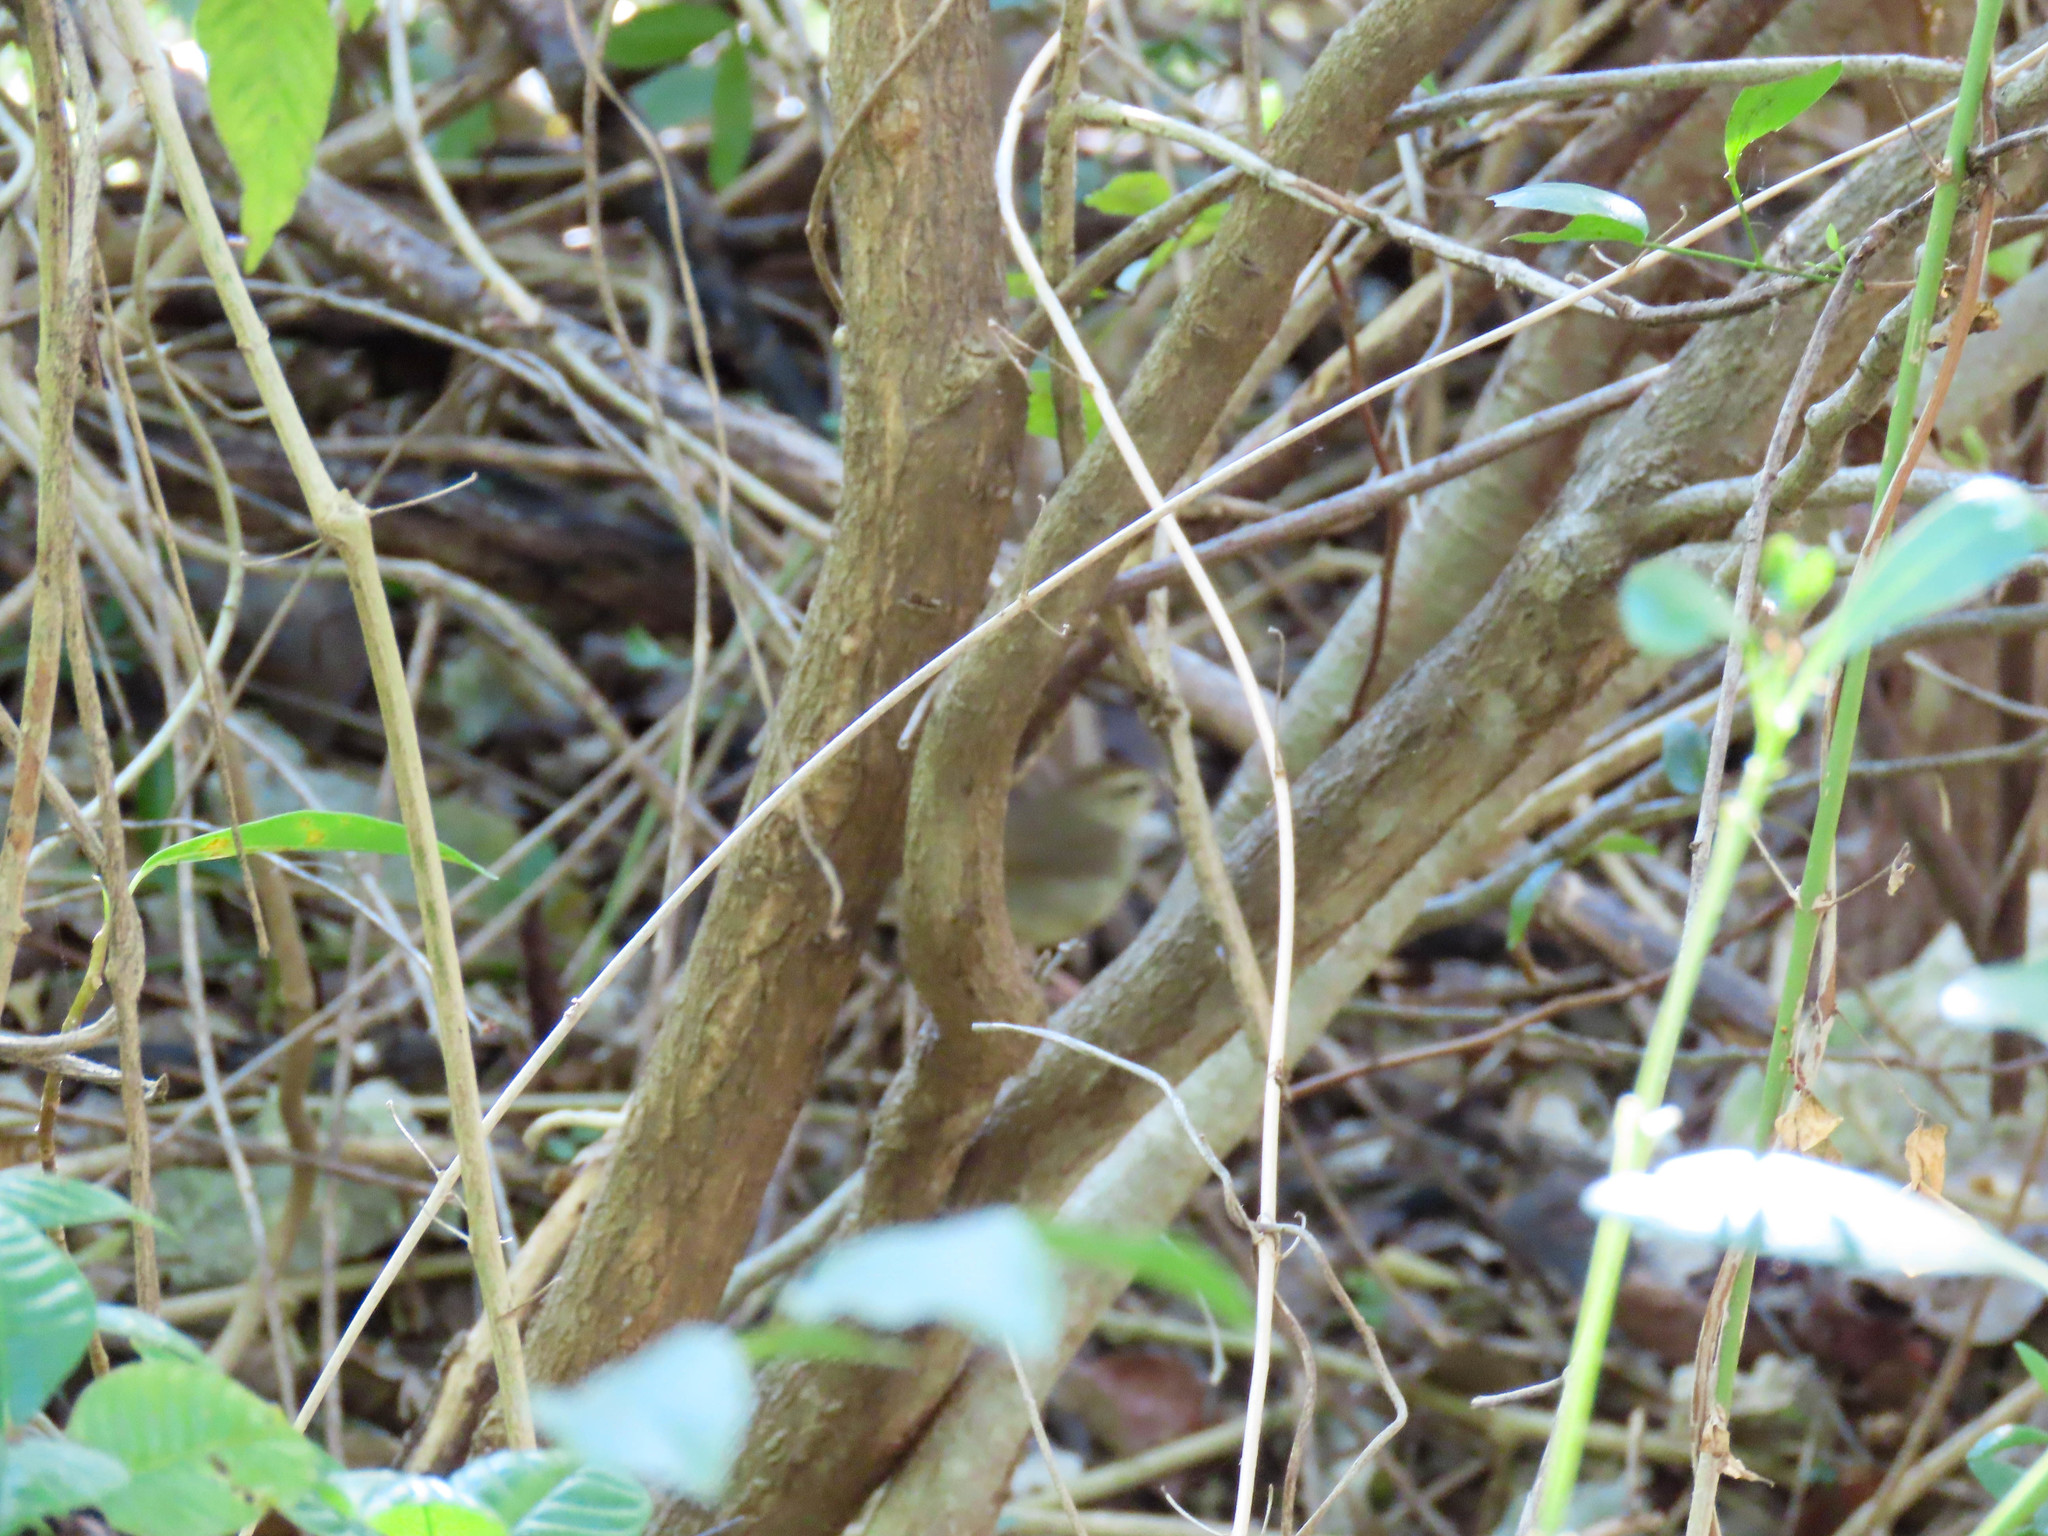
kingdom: Animalia
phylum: Chordata
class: Aves
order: Passeriformes
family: Parulidae
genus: Limnothlypis
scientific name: Limnothlypis swainsonii
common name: Swainson's warbler
